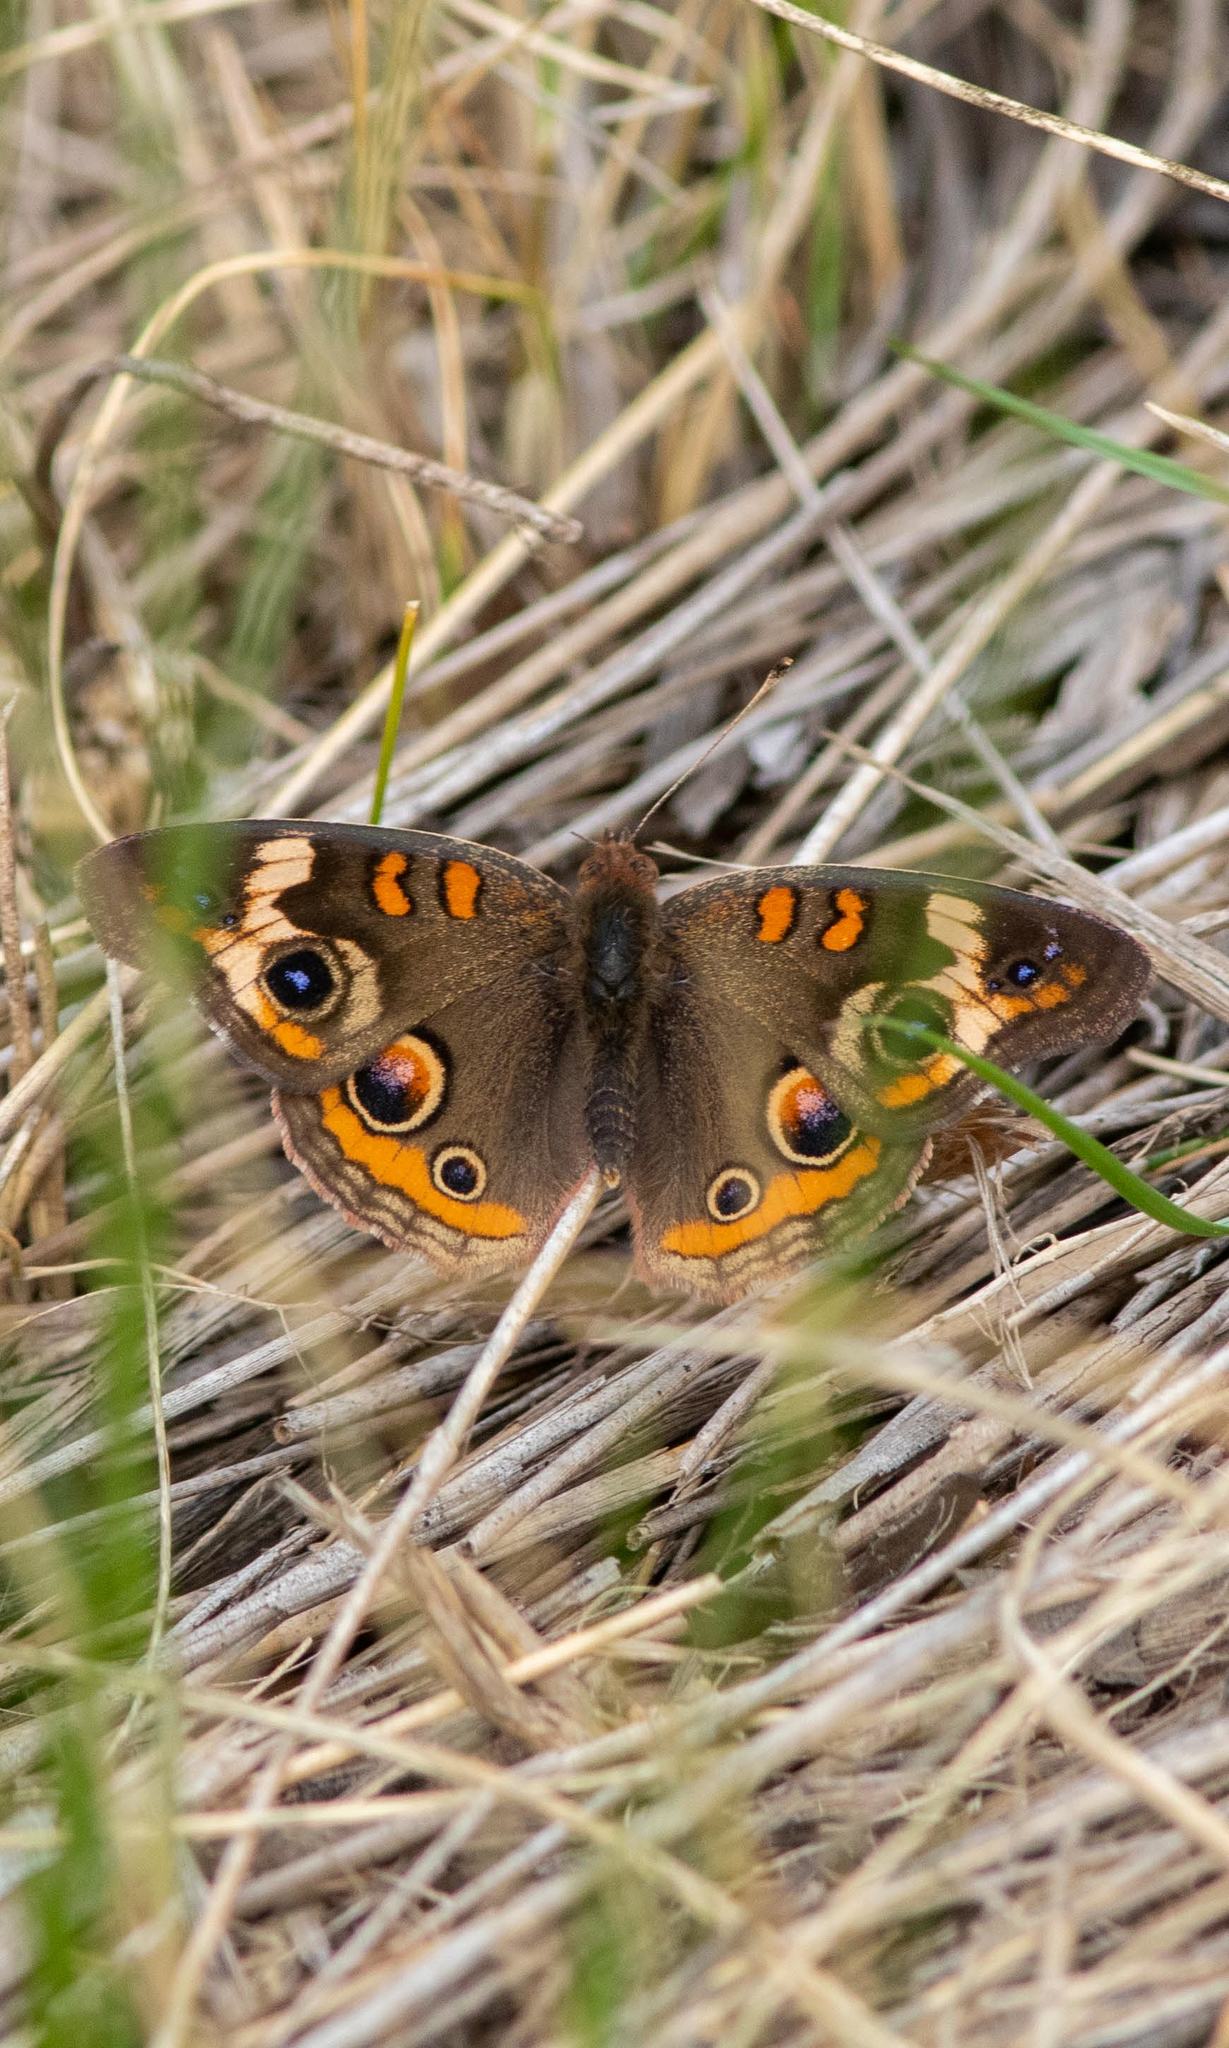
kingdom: Animalia
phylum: Arthropoda
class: Insecta
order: Lepidoptera
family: Nymphalidae
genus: Junonia
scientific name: Junonia coenia
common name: Common buckeye
